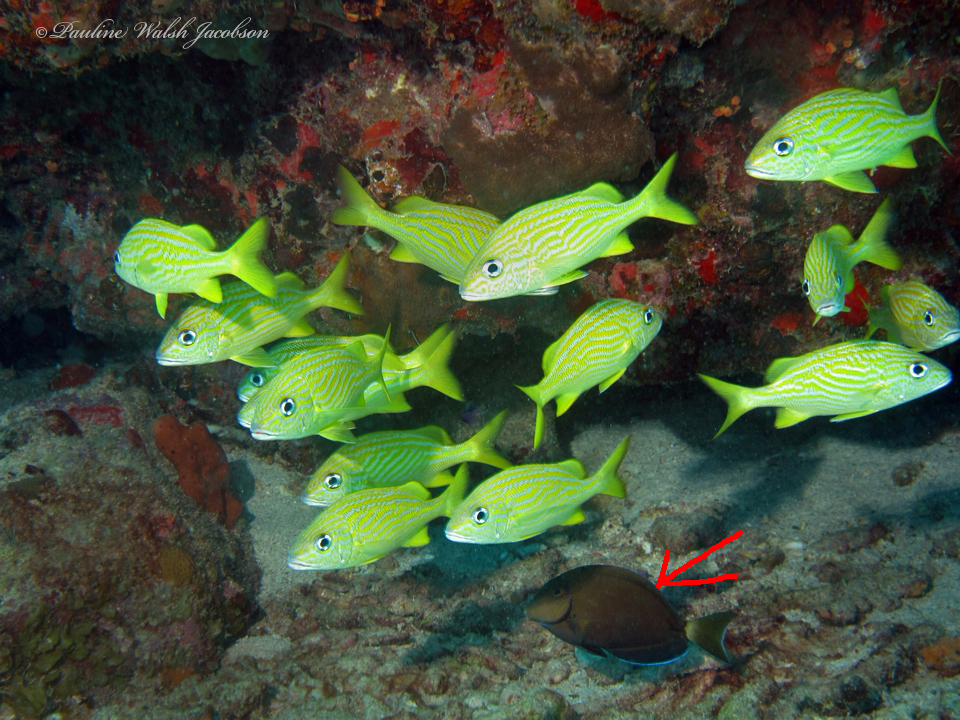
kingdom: Animalia
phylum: Chordata
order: Perciformes
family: Acanthuridae
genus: Acanthurus
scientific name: Acanthurus bahianus
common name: Ocean surgeon
